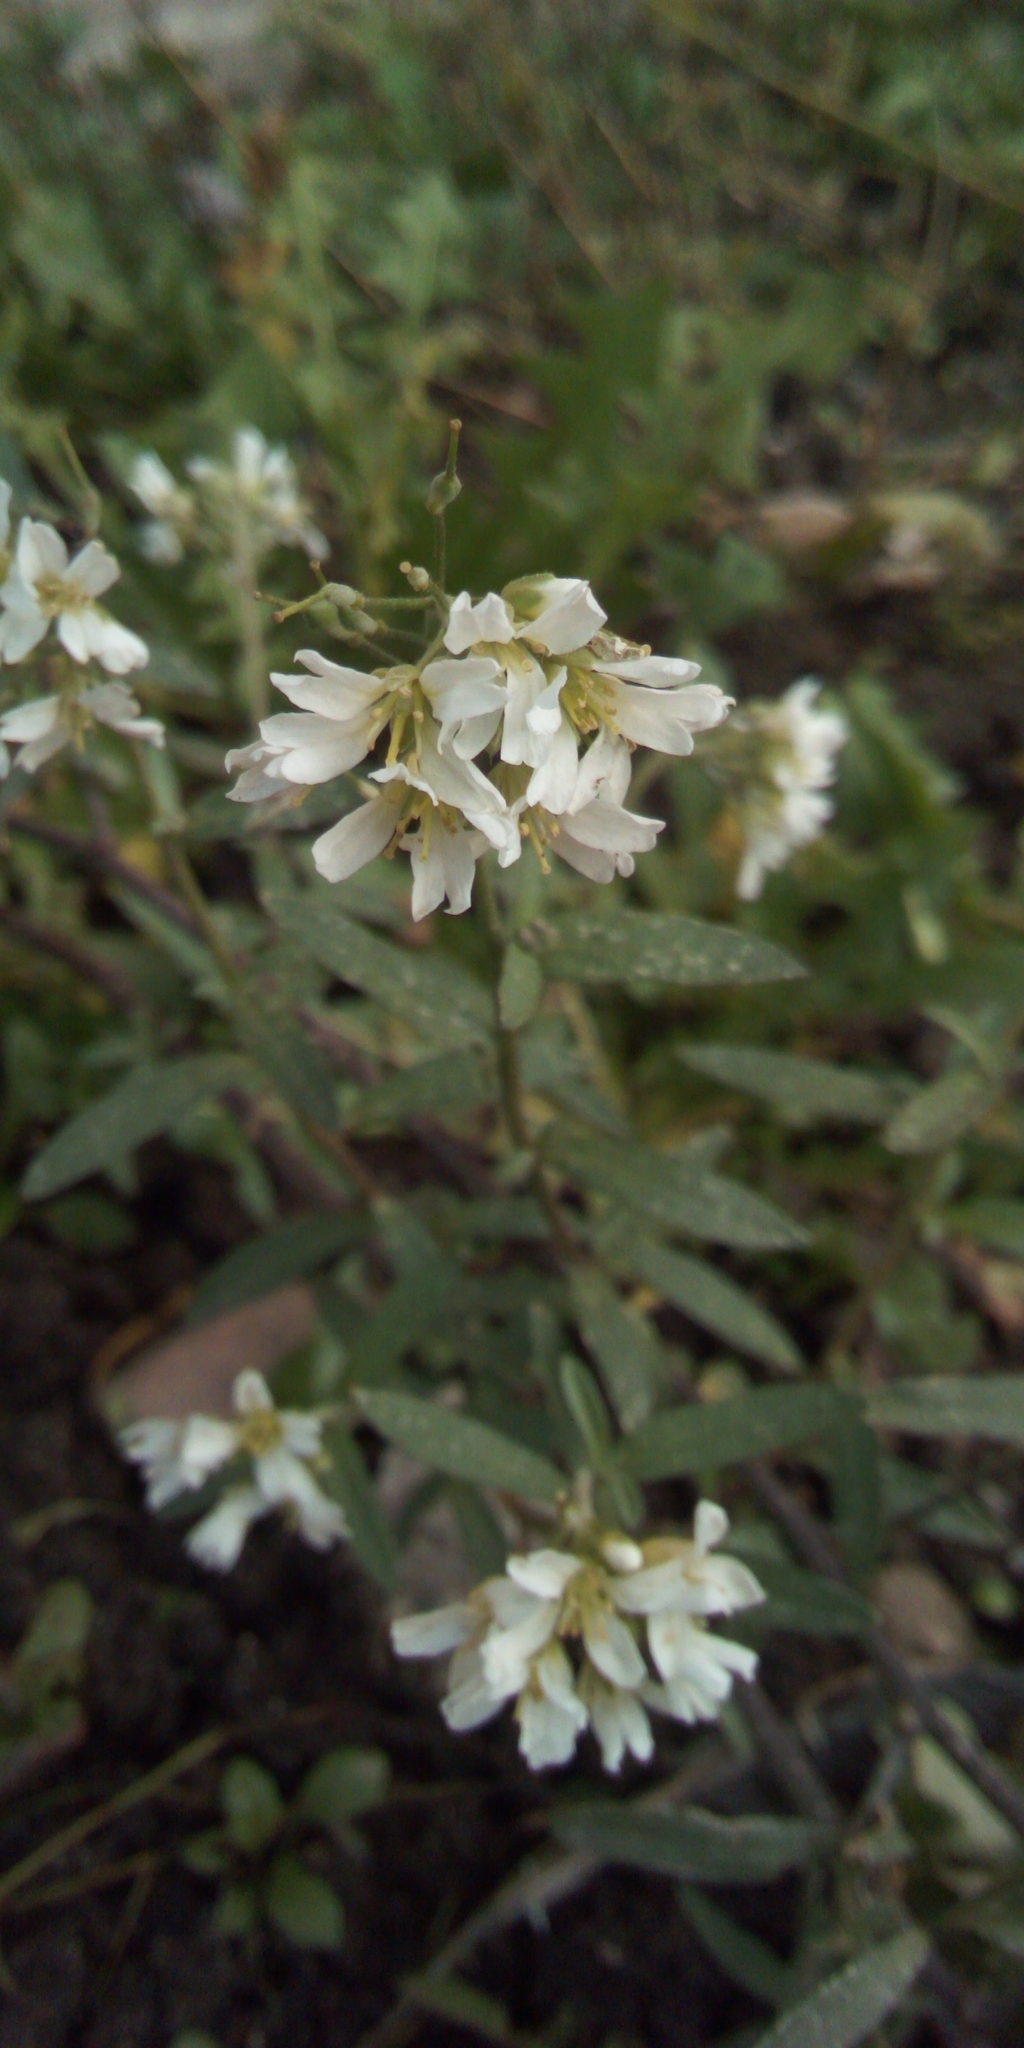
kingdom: Plantae
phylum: Tracheophyta
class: Magnoliopsida
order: Brassicales
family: Brassicaceae
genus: Berteroa
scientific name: Berteroa incana
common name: Hoary alison
